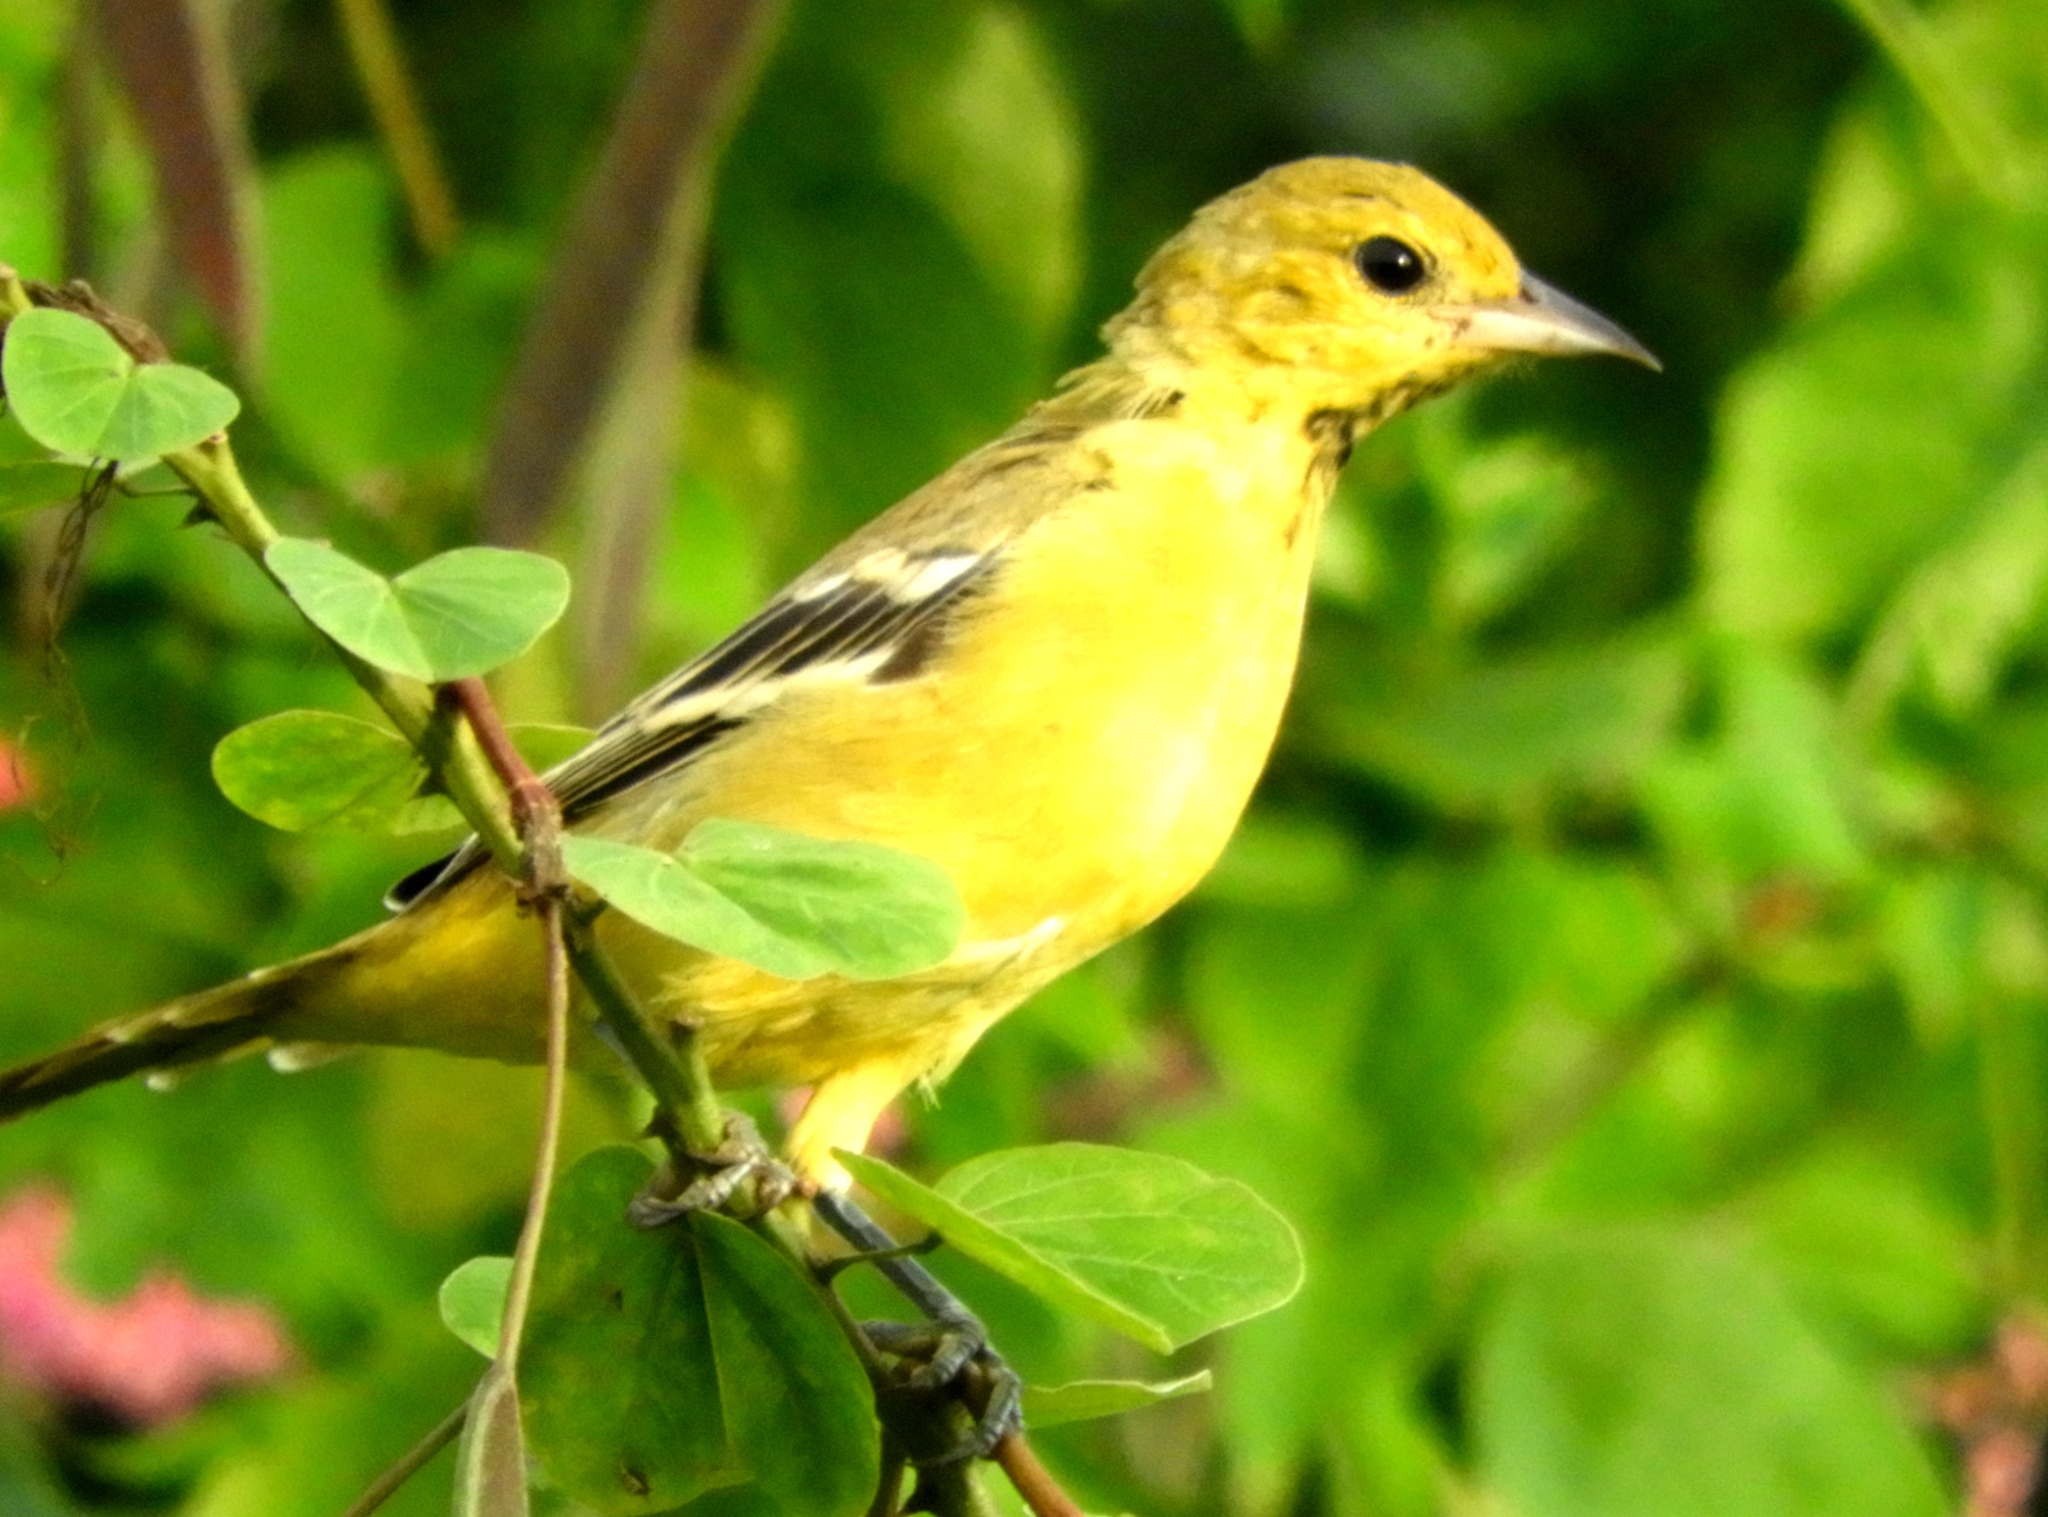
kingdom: Animalia
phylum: Chordata
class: Aves
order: Passeriformes
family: Icteridae
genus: Icterus
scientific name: Icterus
